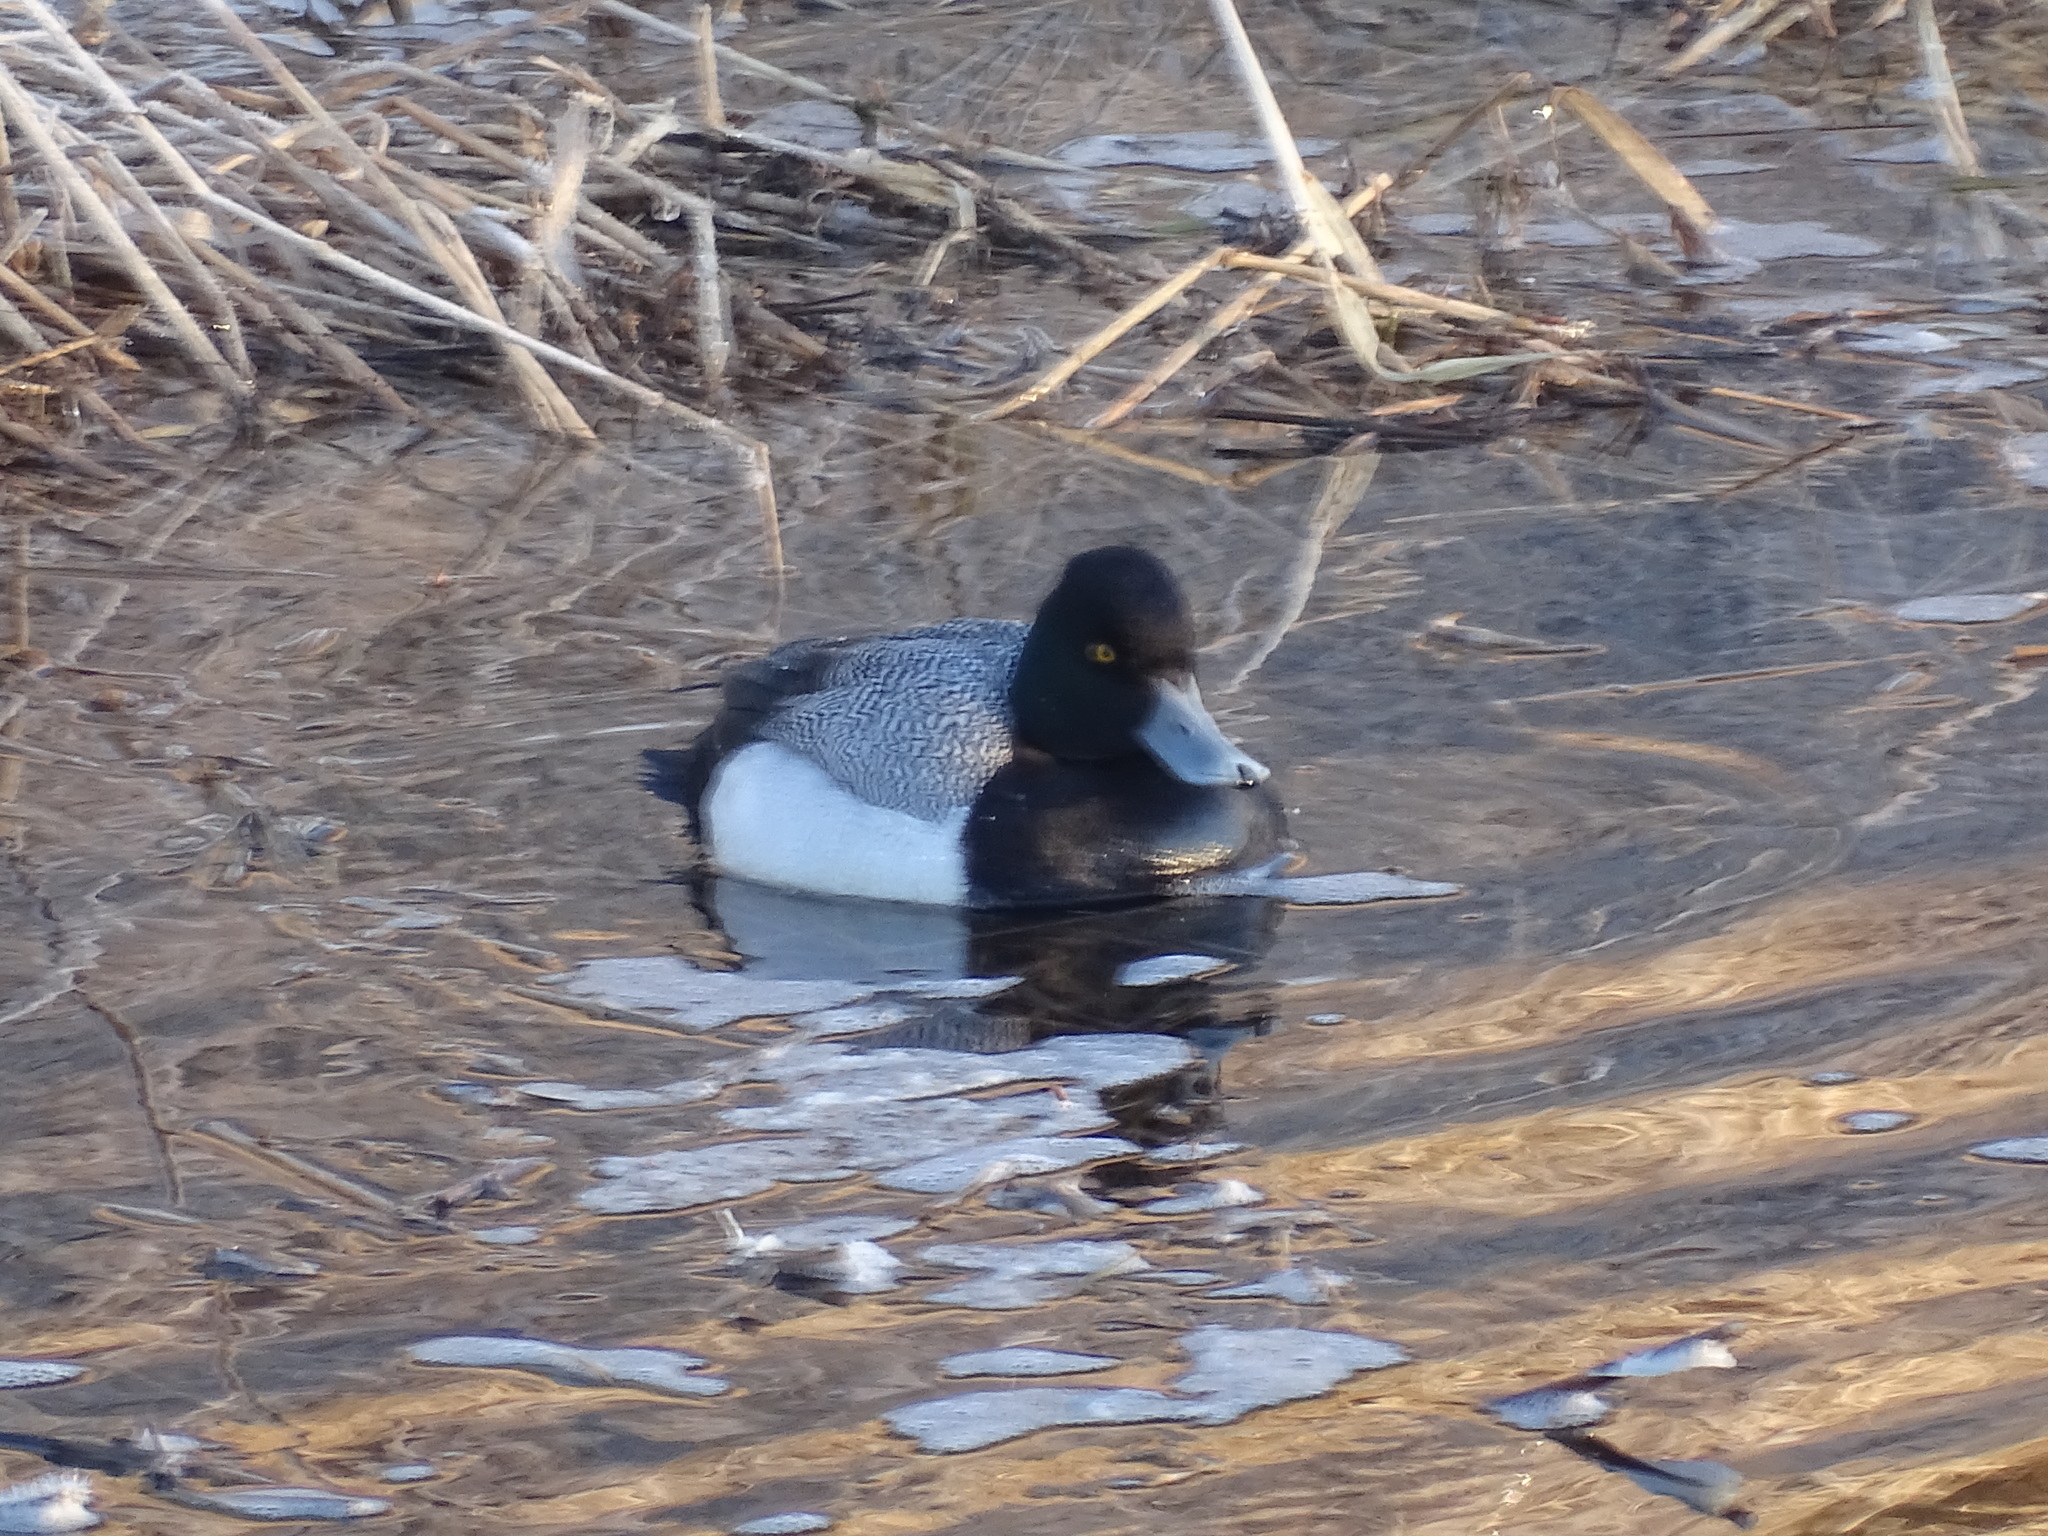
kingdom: Animalia
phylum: Chordata
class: Aves
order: Anseriformes
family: Anatidae
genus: Aythya
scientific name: Aythya affinis
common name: Lesser scaup
